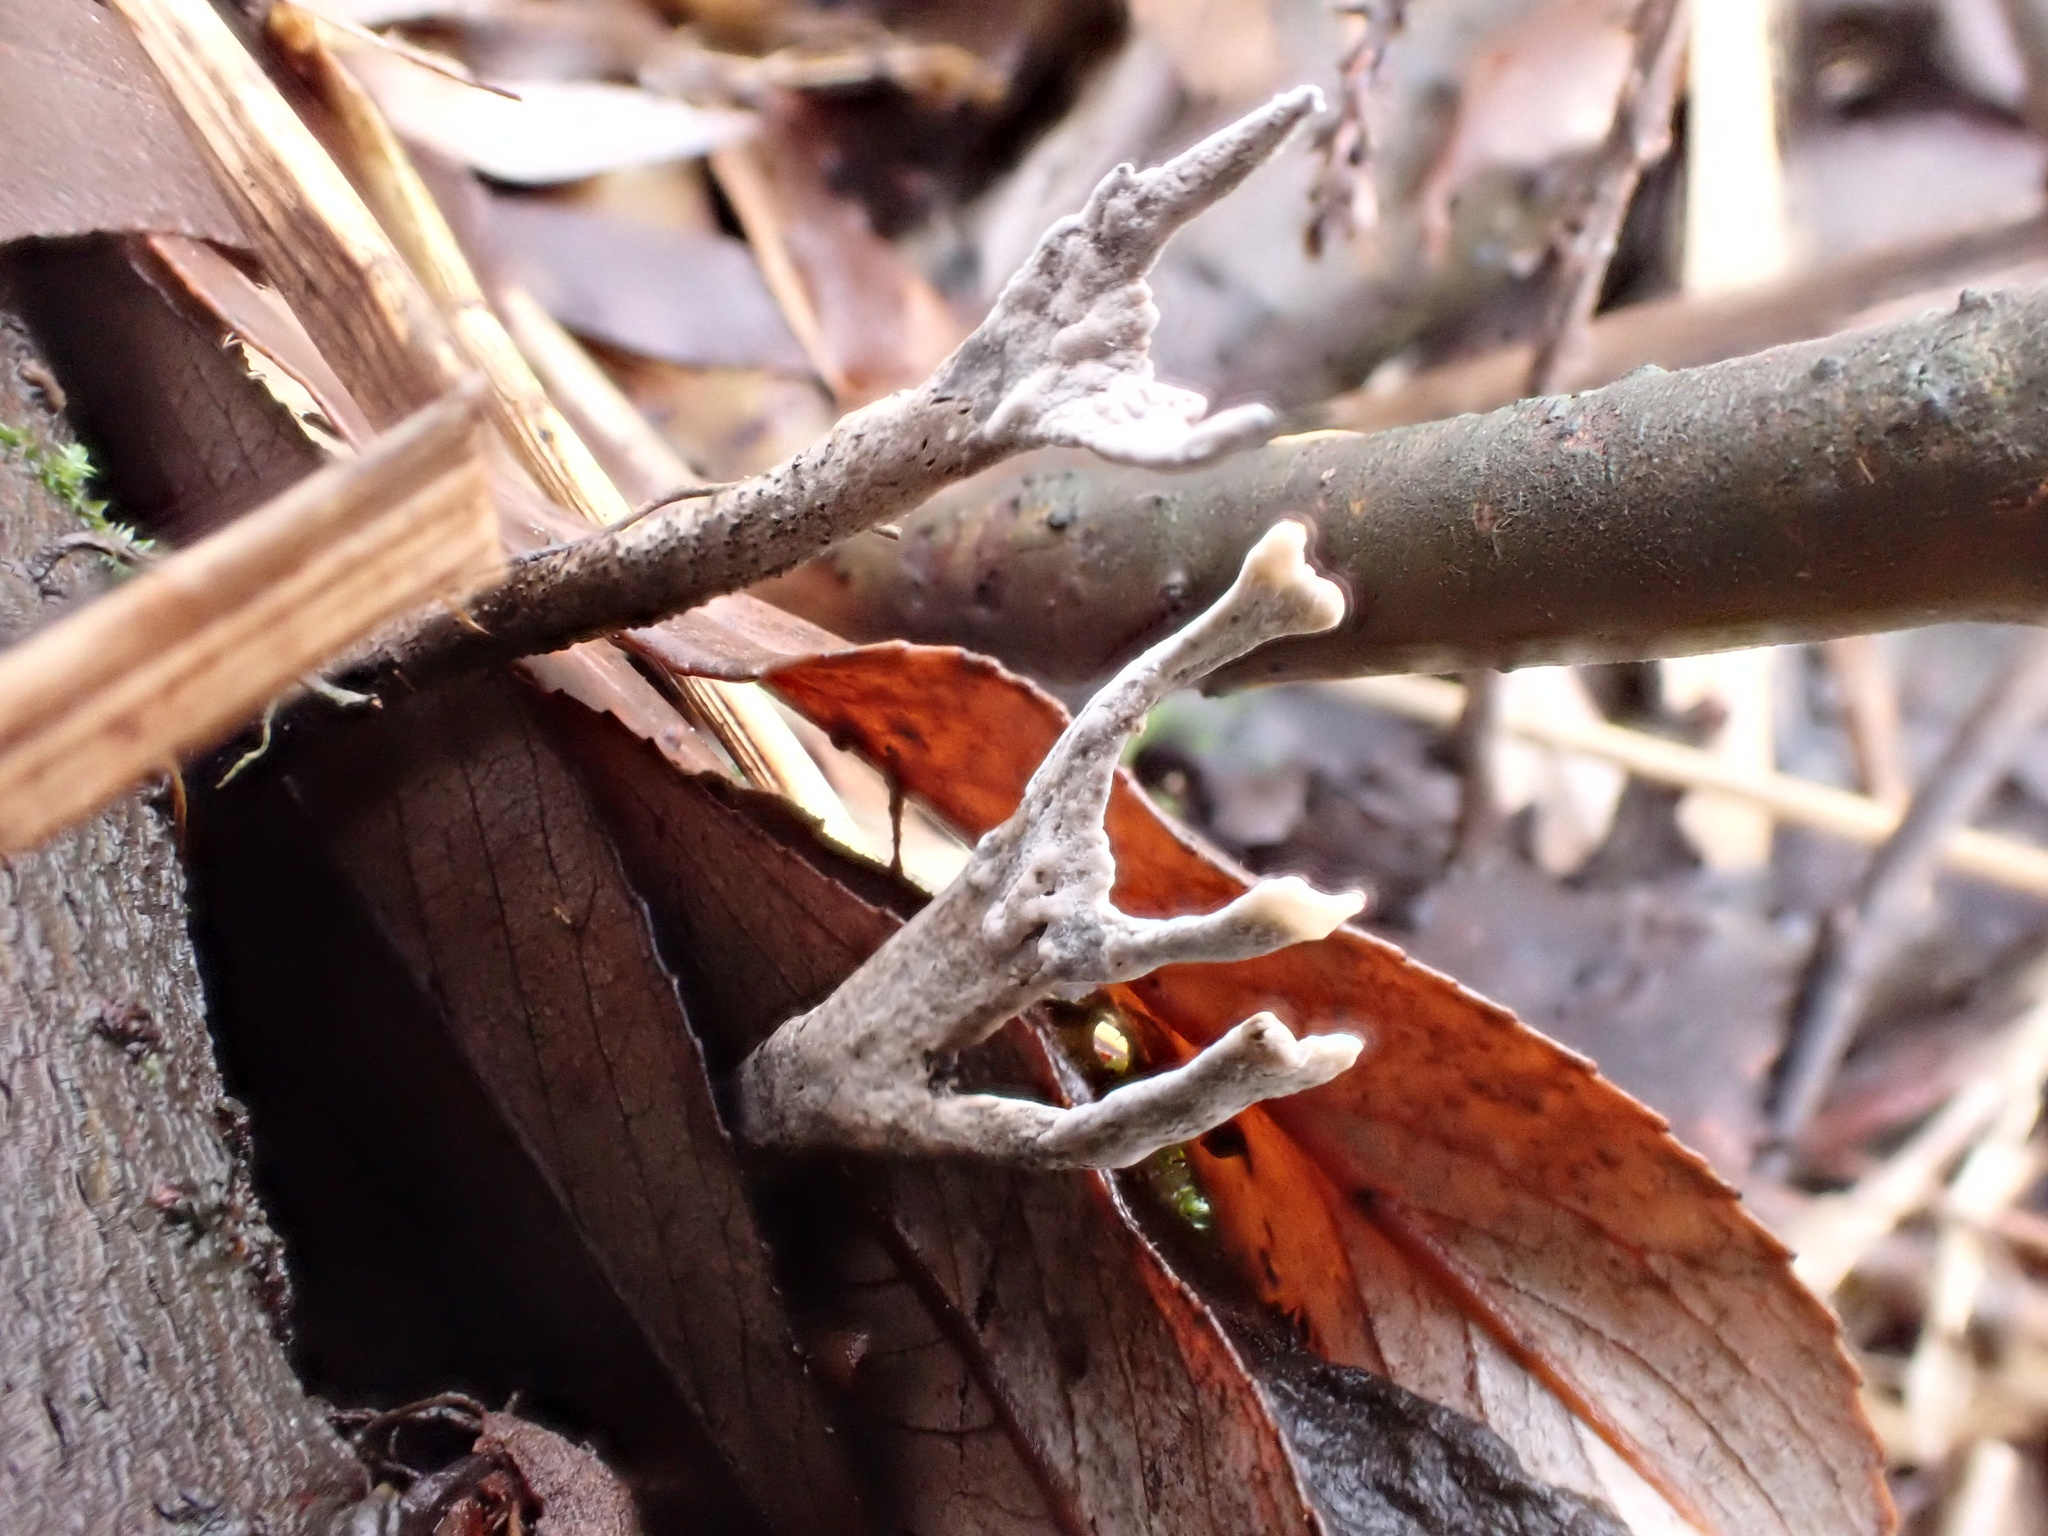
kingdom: Fungi
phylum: Ascomycota
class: Sordariomycetes
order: Xylariales
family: Xylariaceae
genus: Xylaria
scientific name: Xylaria hypoxylon
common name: Candle-snuff fungus
